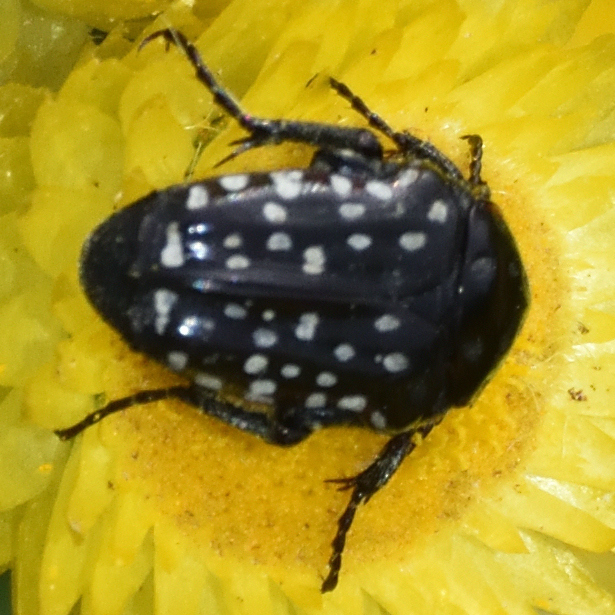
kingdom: Animalia
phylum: Arthropoda
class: Insecta
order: Coleoptera
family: Scarabaeidae
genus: Oxythyrea
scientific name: Oxythyrea
